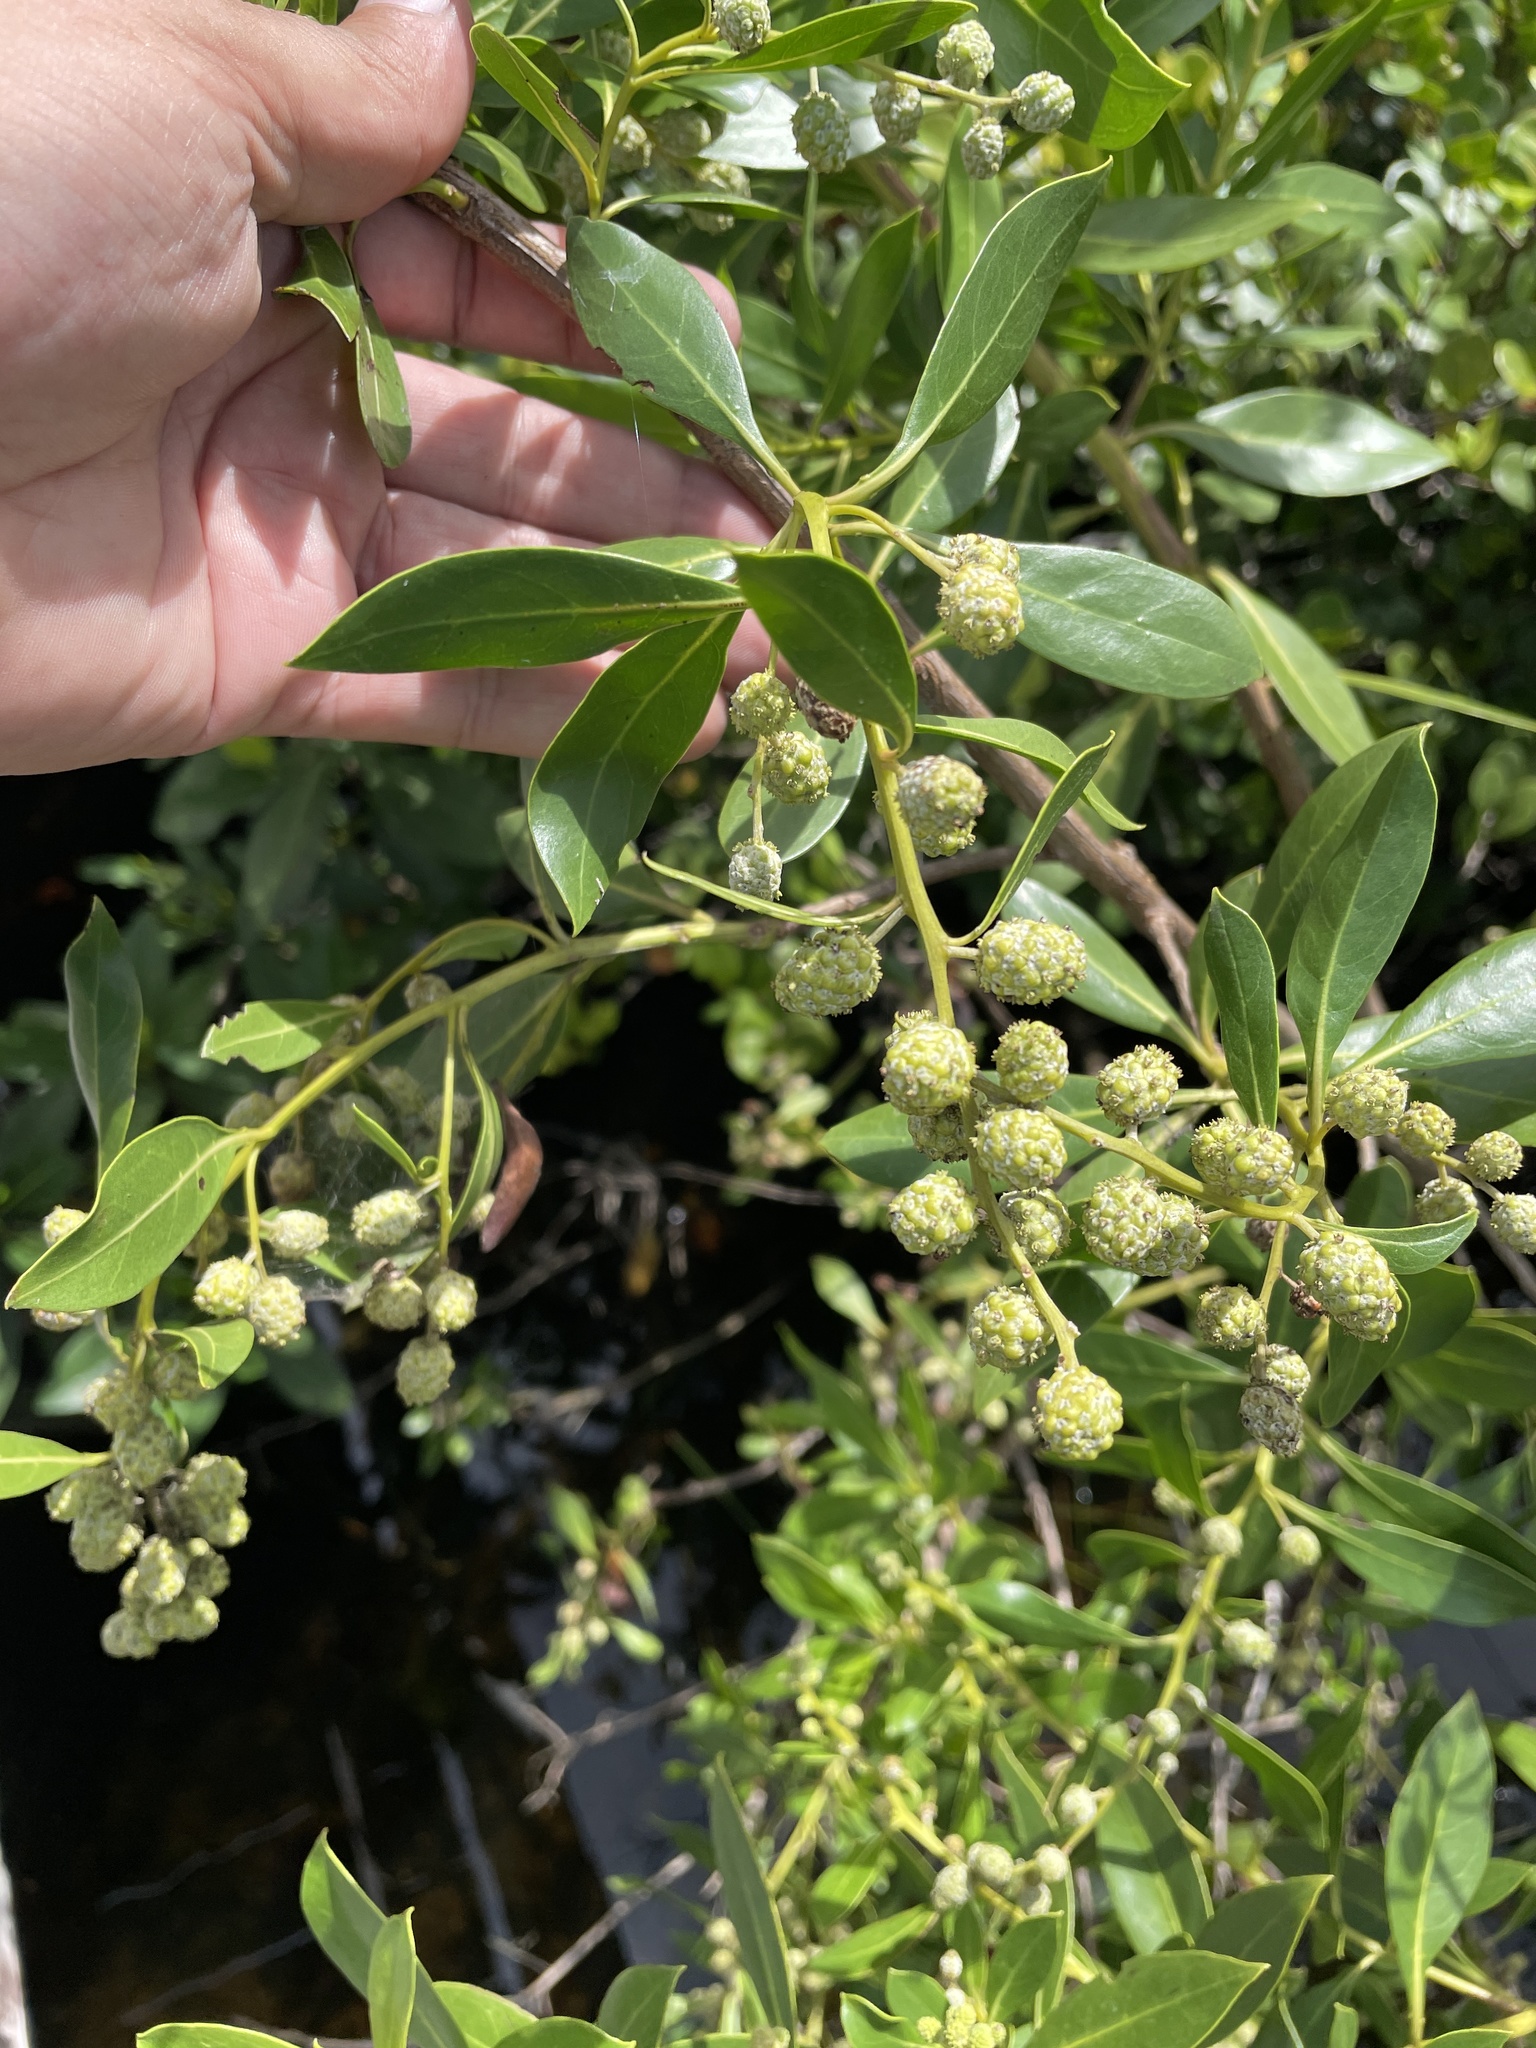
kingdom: Plantae
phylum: Tracheophyta
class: Magnoliopsida
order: Myrtales
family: Combretaceae
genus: Conocarpus
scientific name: Conocarpus erectus
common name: Button mangrove
